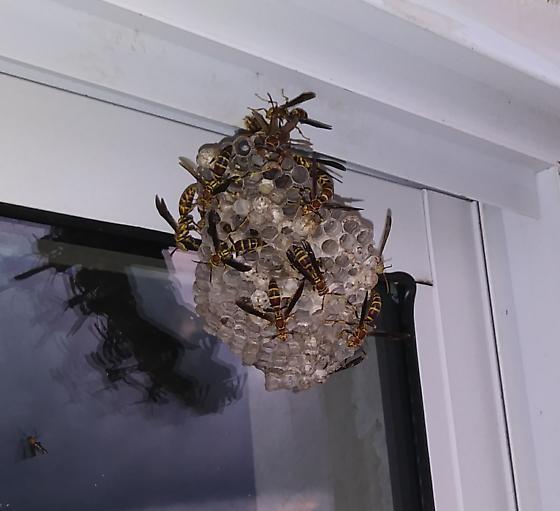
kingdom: Animalia
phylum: Arthropoda
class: Insecta
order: Hymenoptera
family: Eumenidae
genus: Polistes
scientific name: Polistes exclamans
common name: Paper wasp
